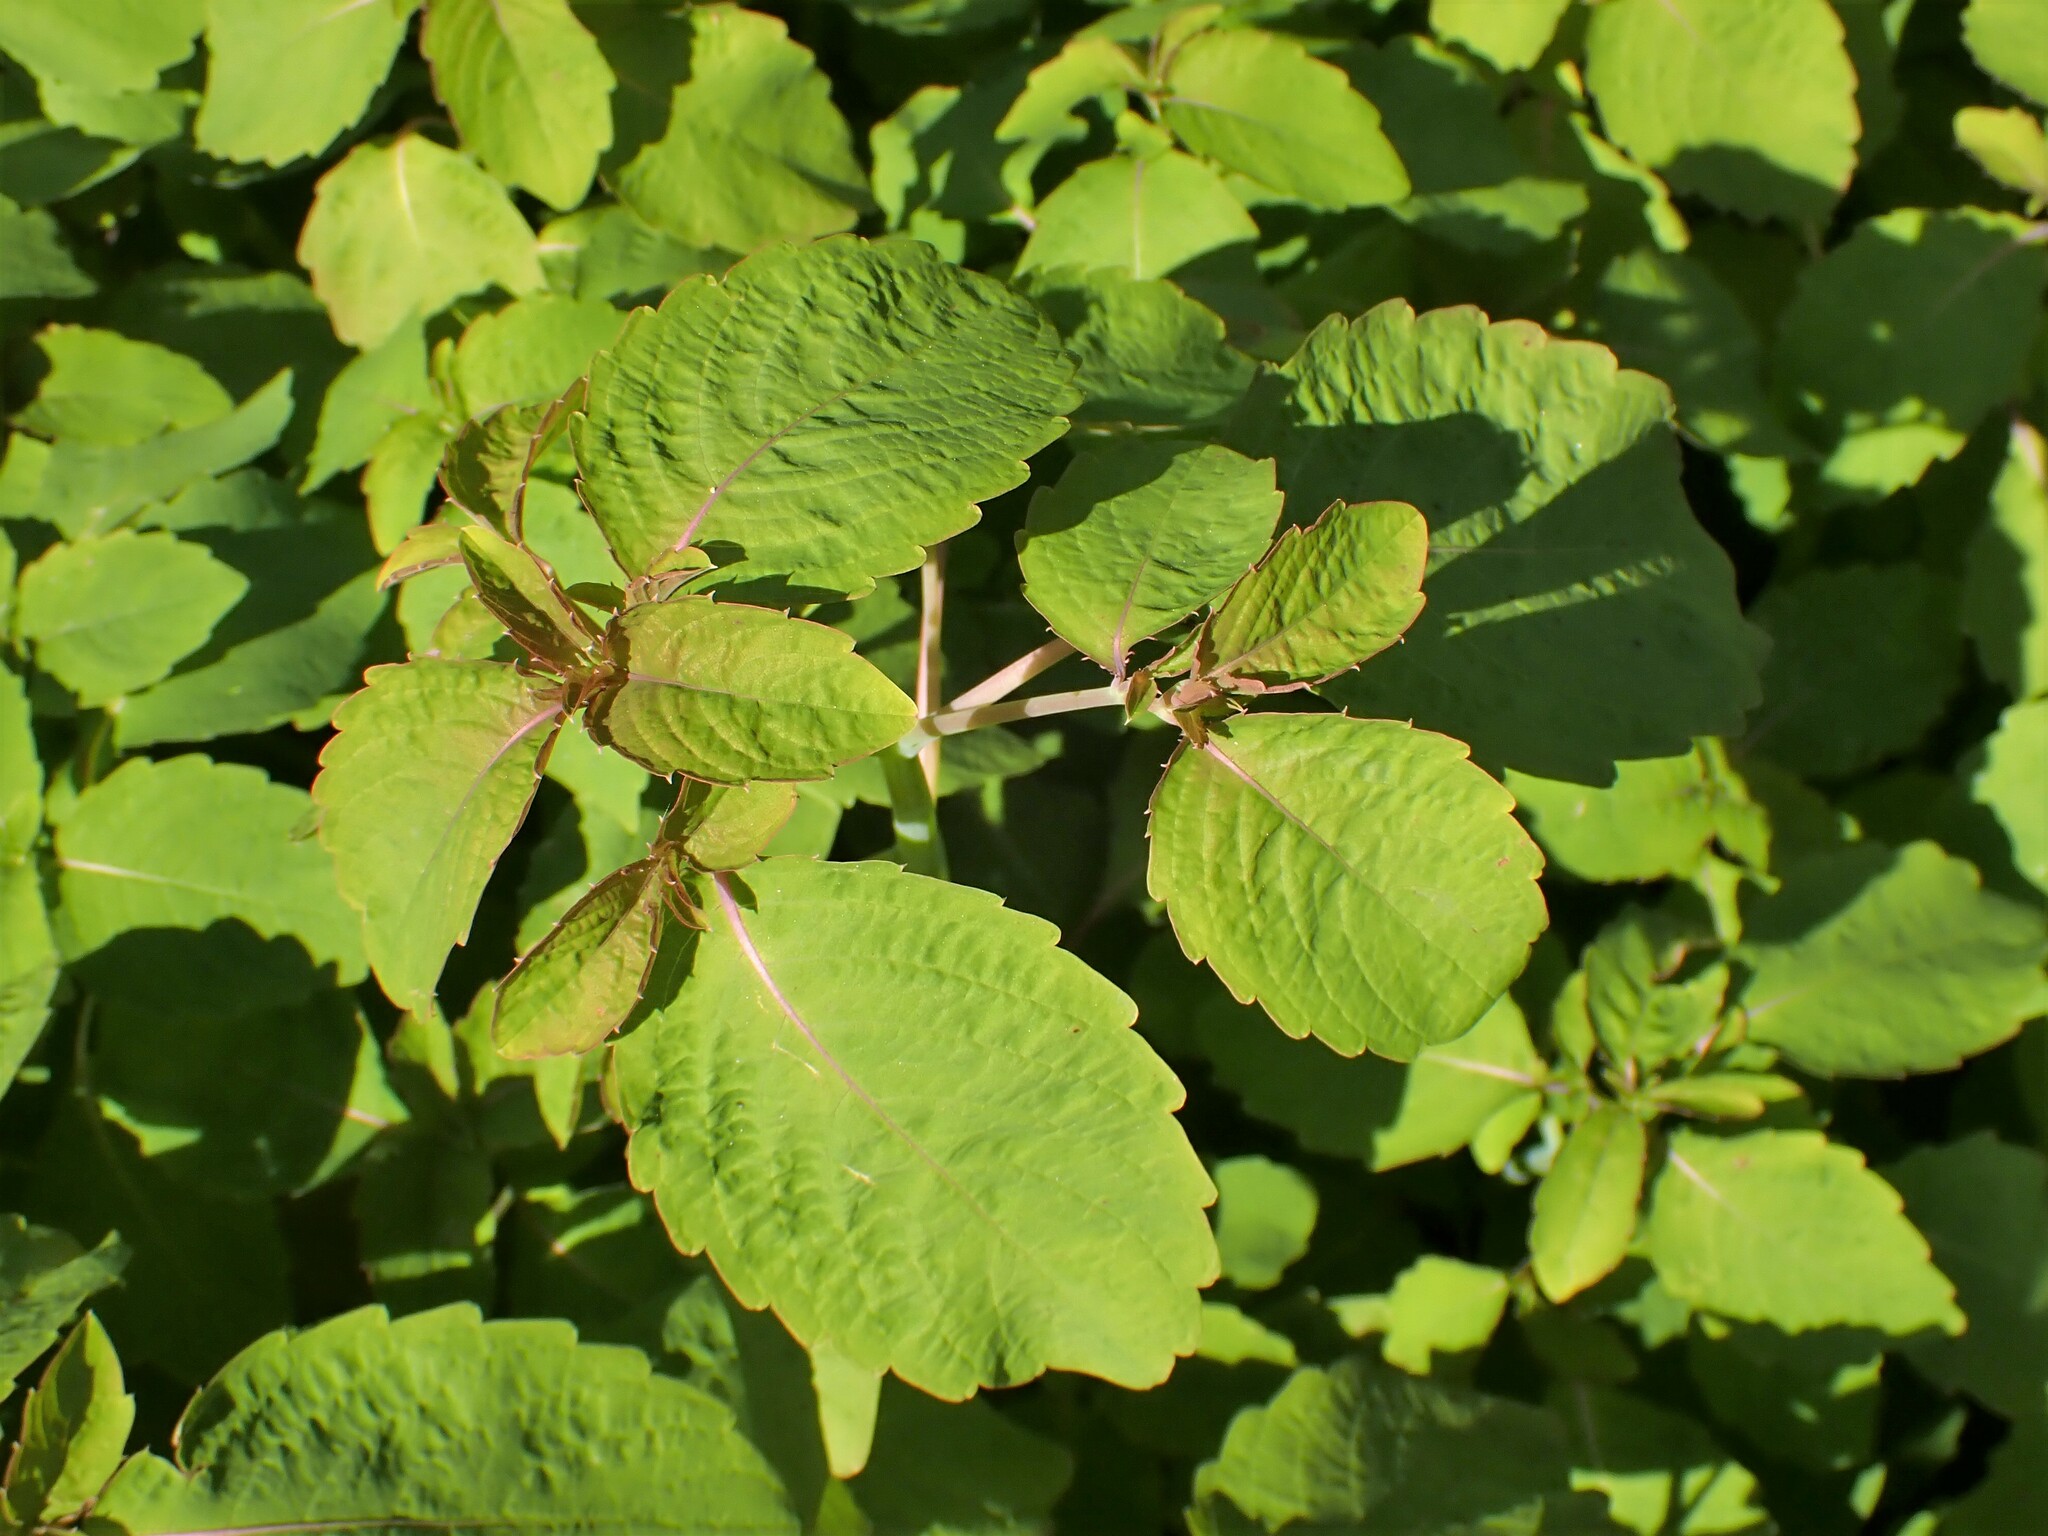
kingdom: Plantae
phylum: Tracheophyta
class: Magnoliopsida
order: Ericales
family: Balsaminaceae
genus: Impatiens
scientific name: Impatiens capensis
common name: Orange balsam
